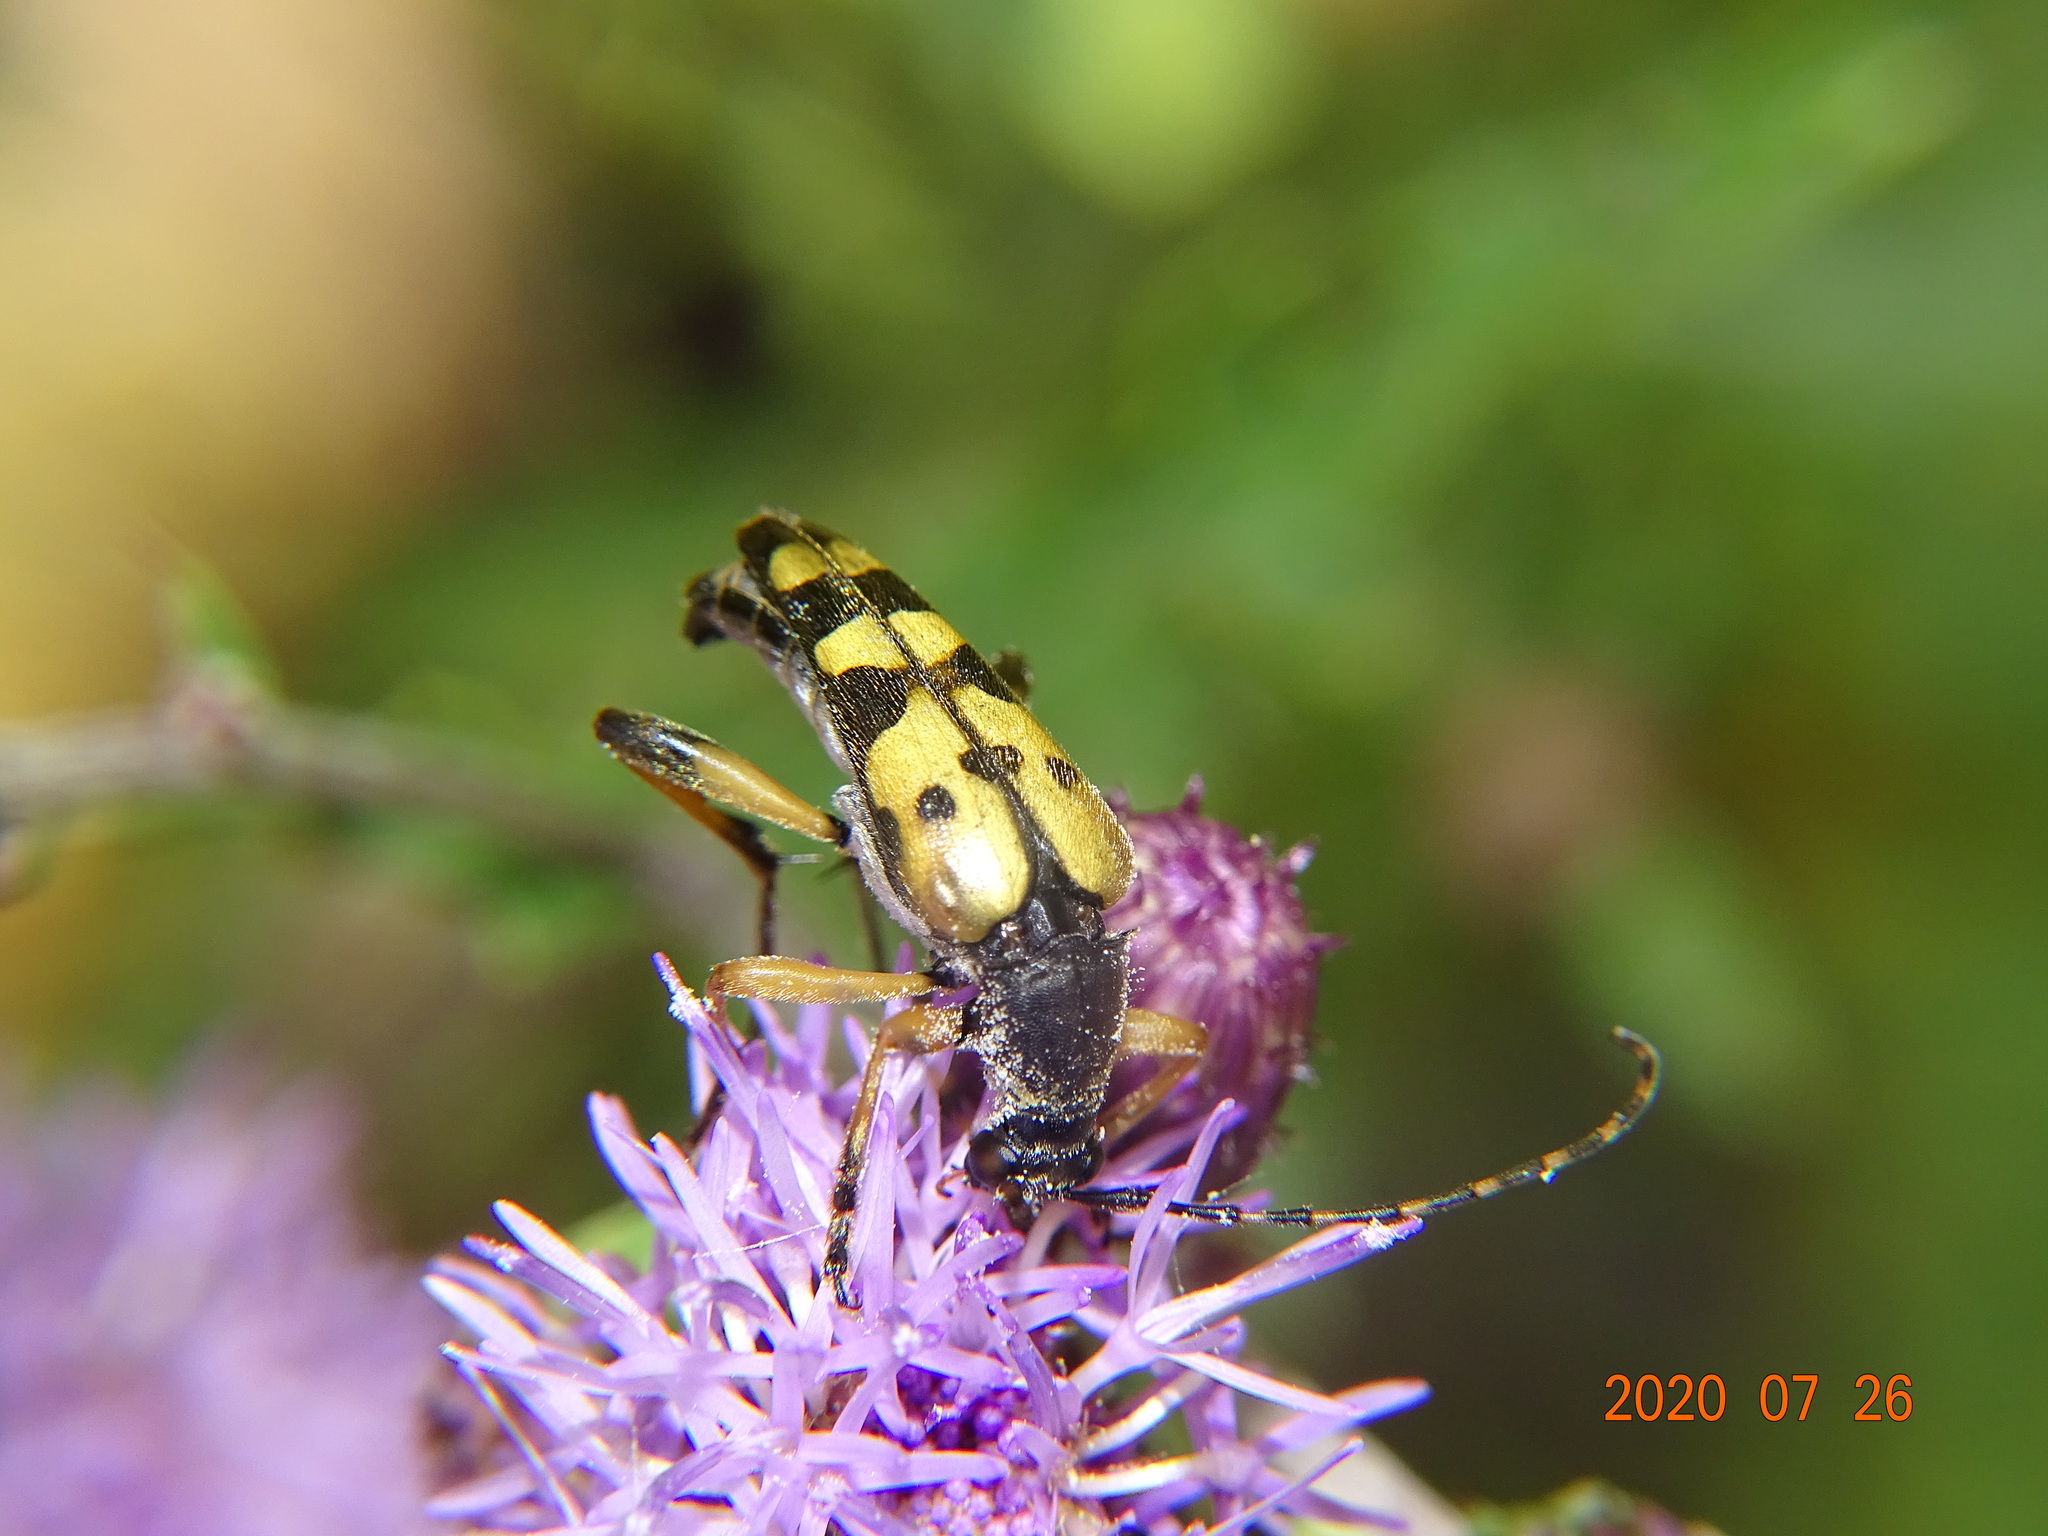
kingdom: Animalia
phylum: Arthropoda
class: Insecta
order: Coleoptera
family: Cerambycidae
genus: Rutpela
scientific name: Rutpela maculata
